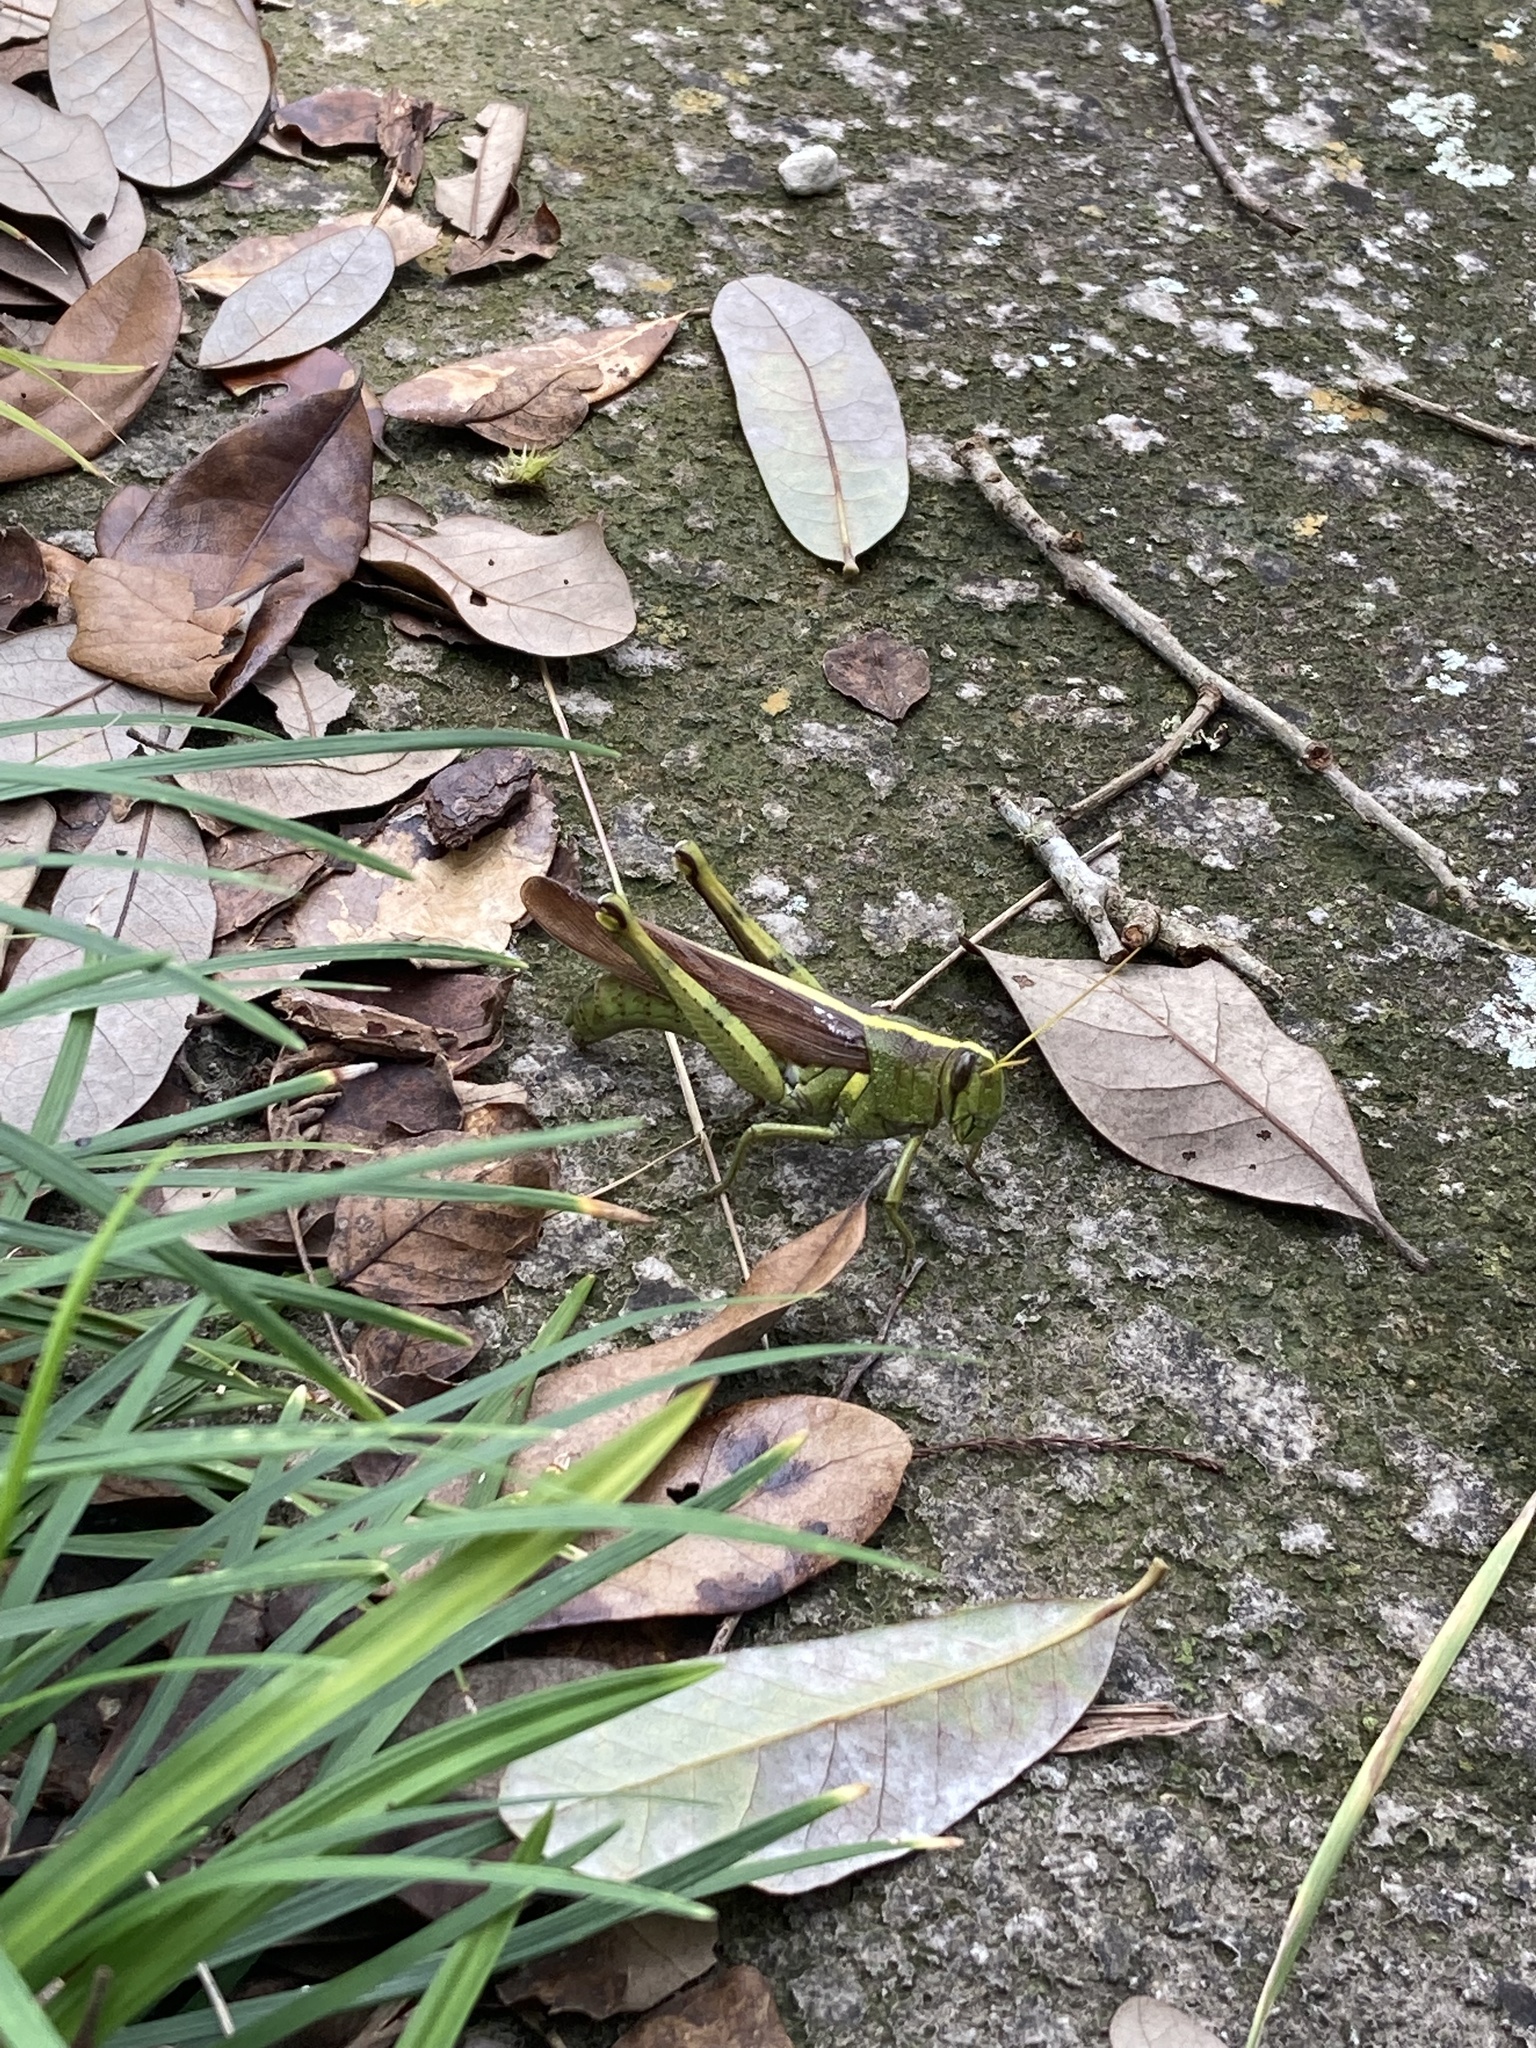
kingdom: Animalia
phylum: Arthropoda
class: Insecta
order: Orthoptera
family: Acrididae
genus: Schistocerca
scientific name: Schistocerca obscura
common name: Obscure bird grasshopper
